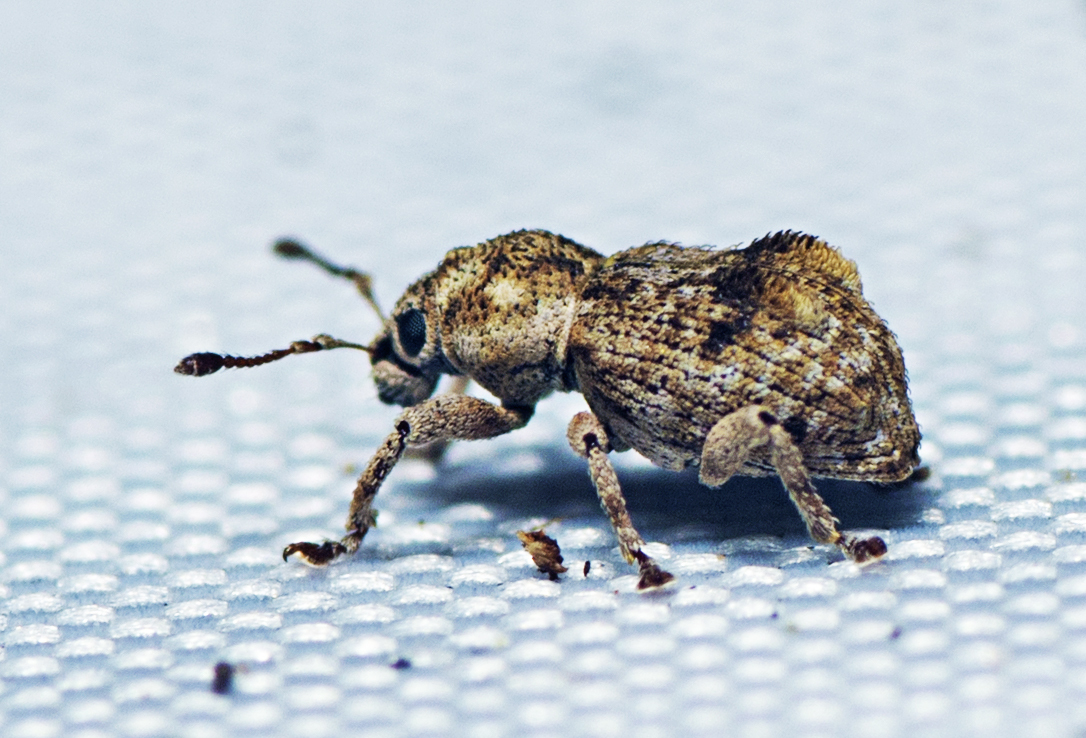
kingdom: Animalia
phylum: Arthropoda
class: Insecta
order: Coleoptera
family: Curculionidae
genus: Reidius
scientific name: Reidius bicristatus
